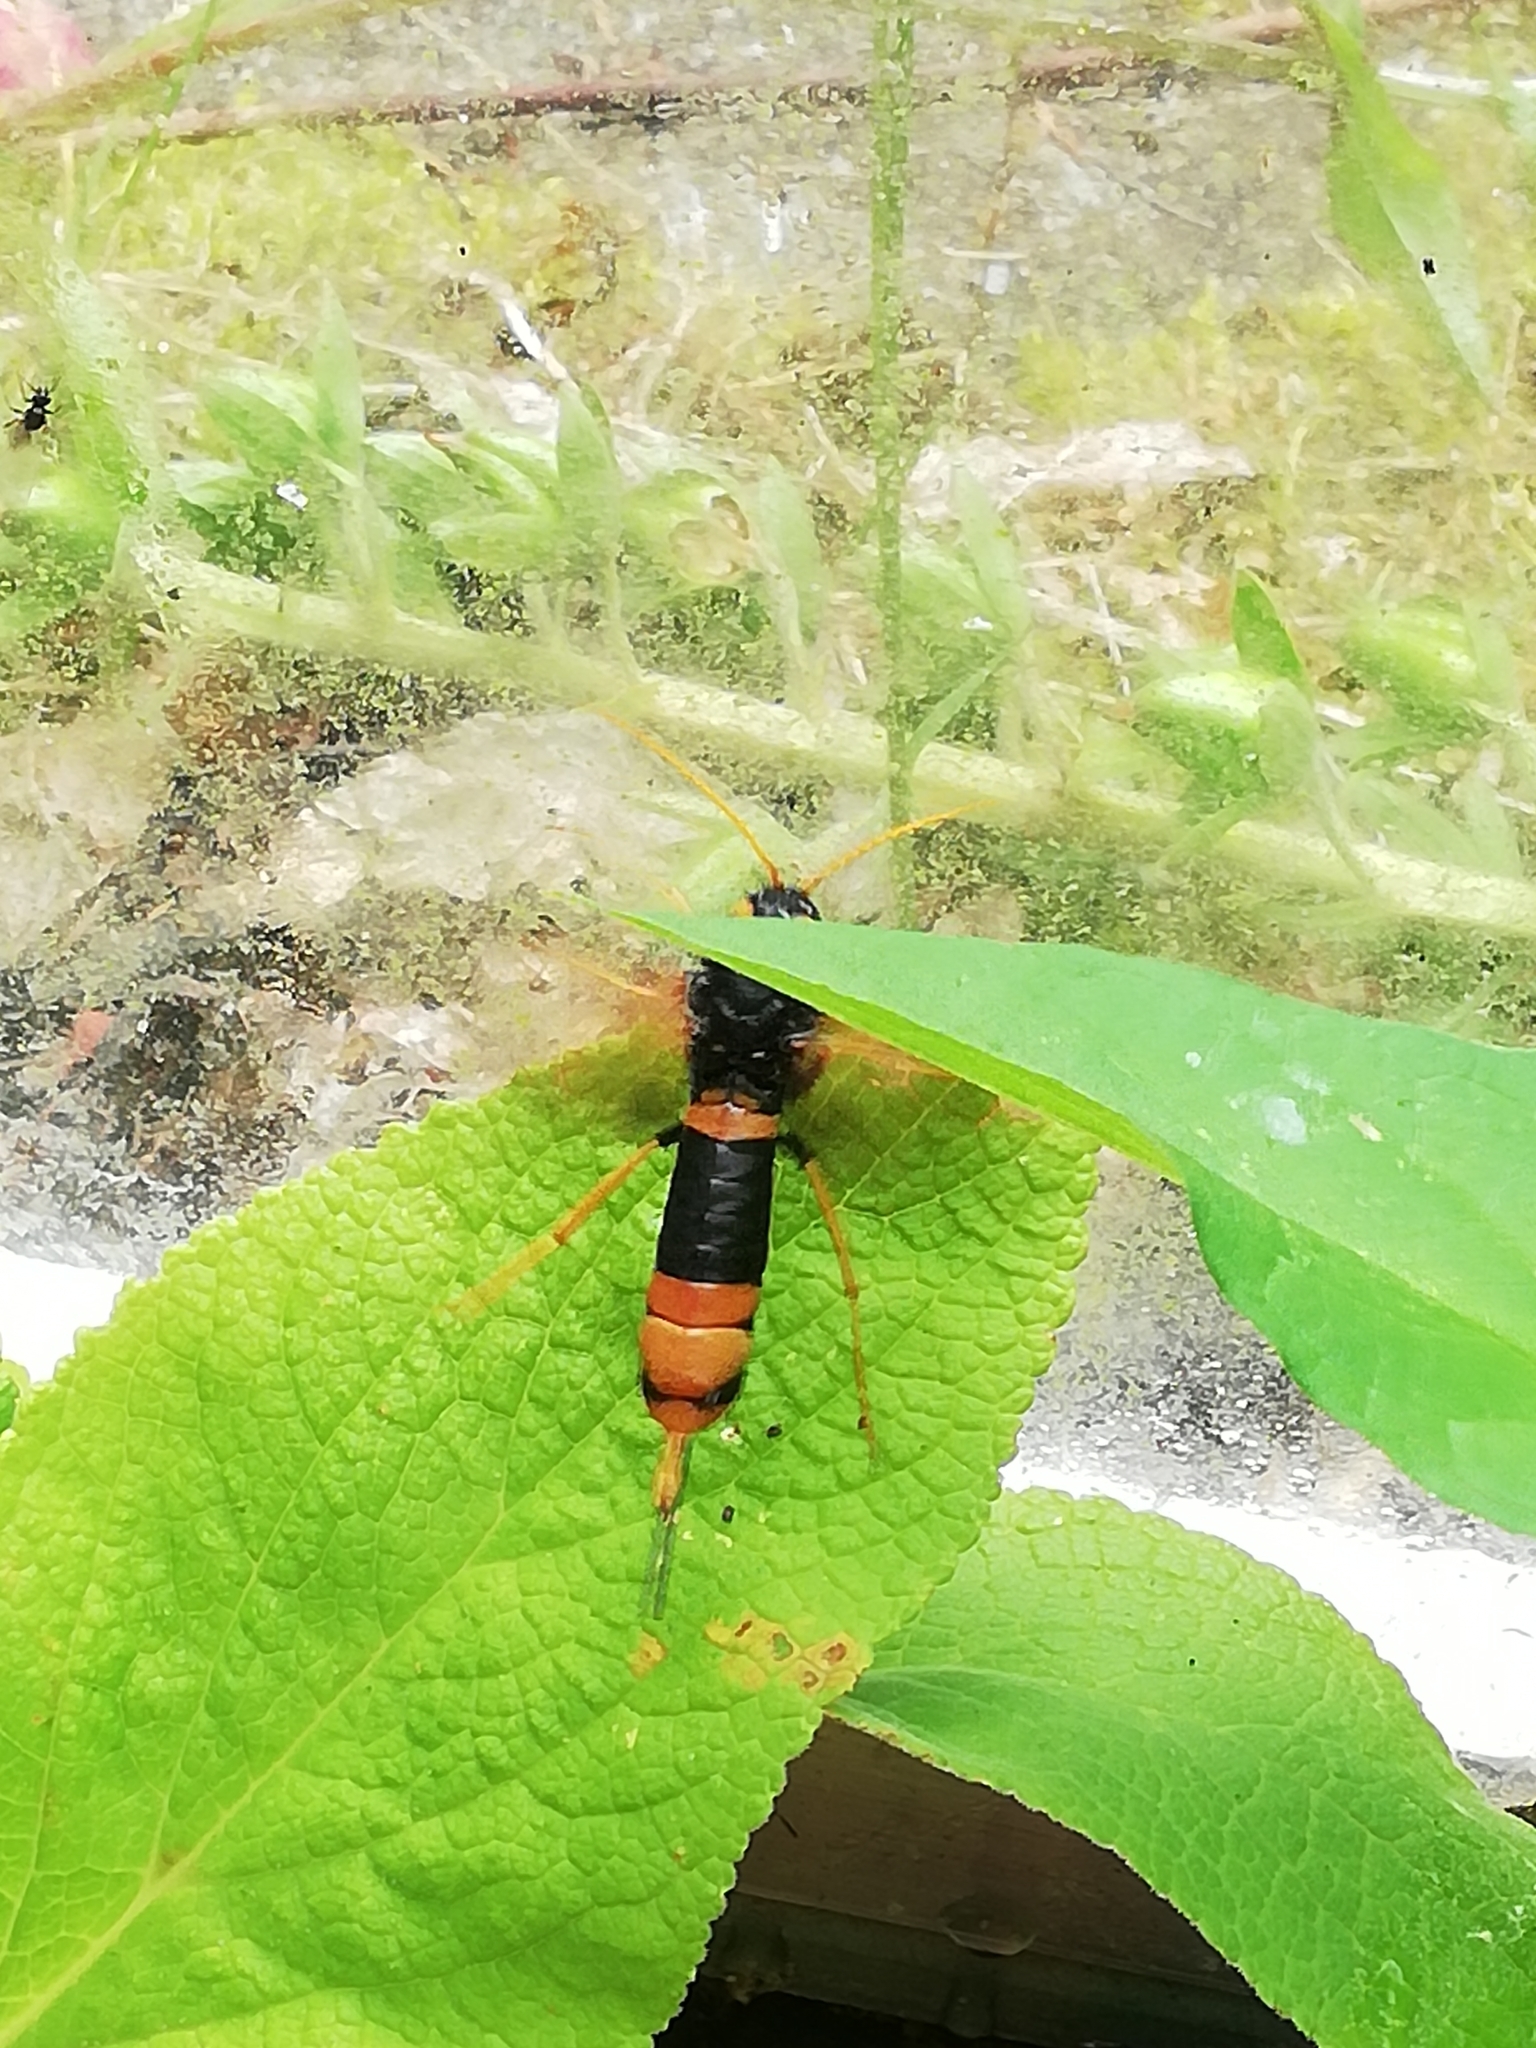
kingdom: Animalia
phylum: Arthropoda
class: Insecta
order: Hymenoptera
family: Siricidae
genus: Urocerus
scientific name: Urocerus gigas
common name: Giant woodwasp
